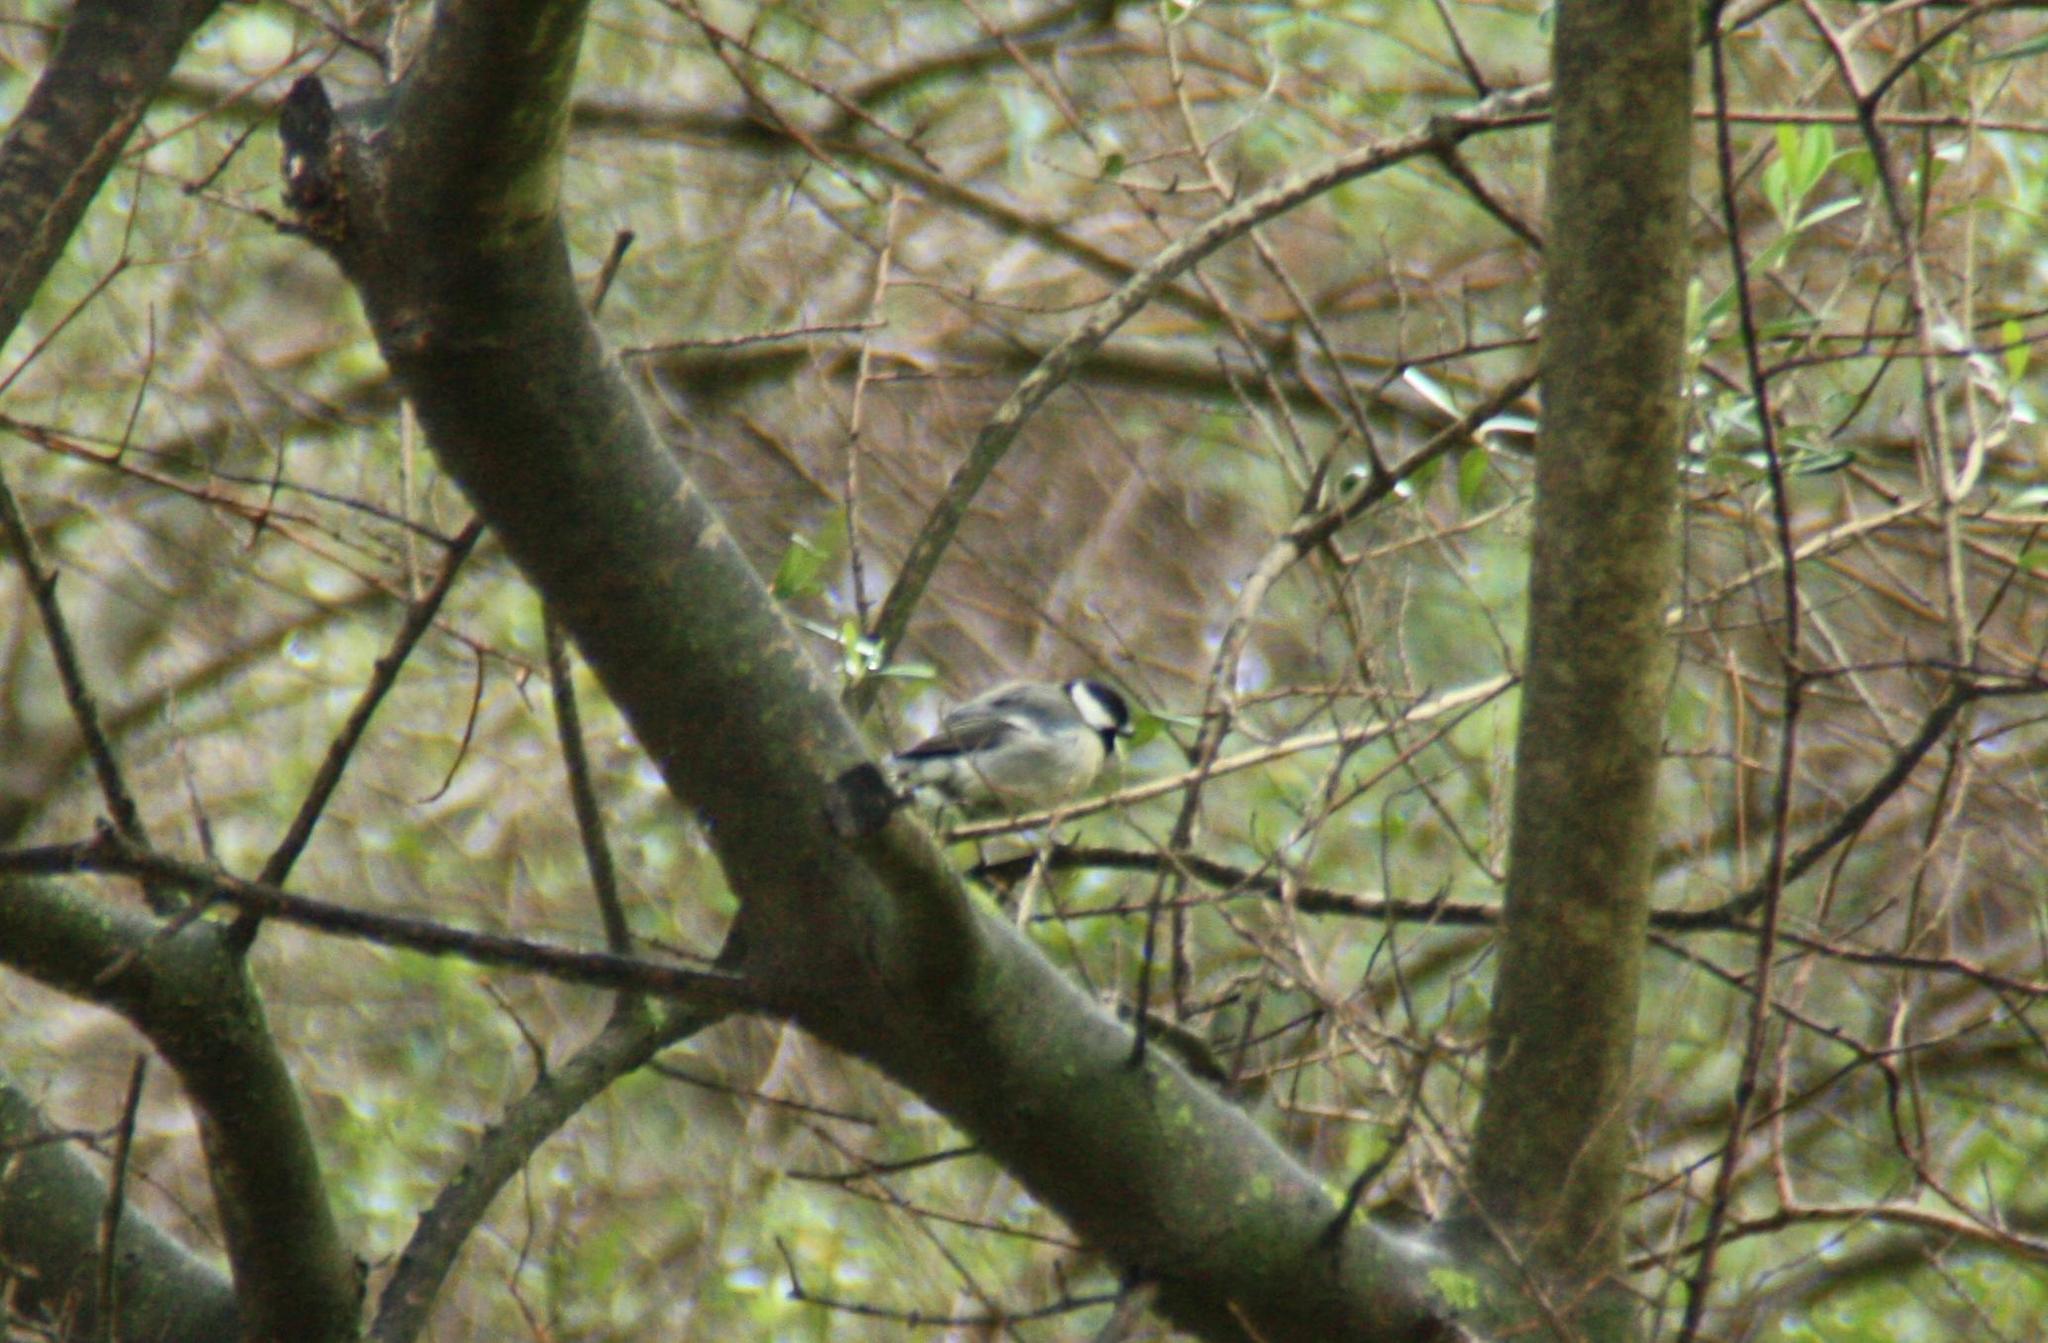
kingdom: Animalia
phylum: Chordata
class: Aves
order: Passeriformes
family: Paridae
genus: Parus
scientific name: Parus major
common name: Great tit
